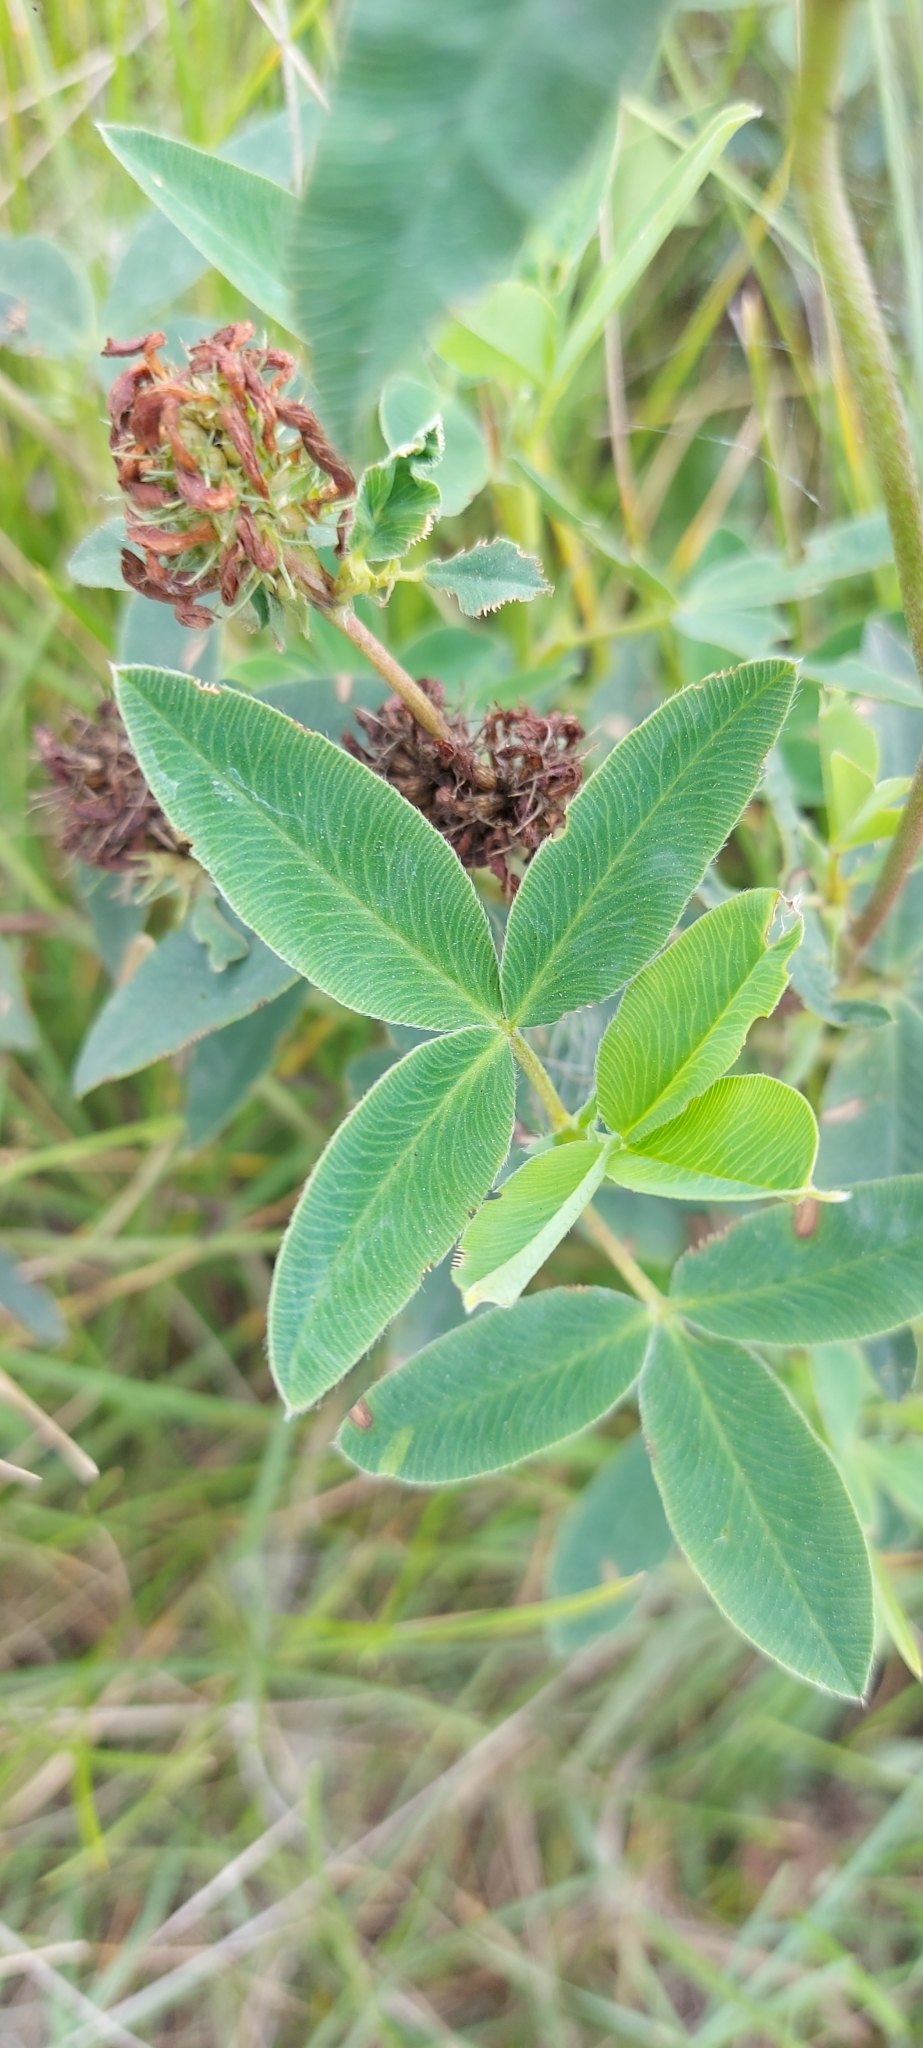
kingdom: Plantae
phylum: Tracheophyta
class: Magnoliopsida
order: Fabales
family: Fabaceae
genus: Trifolium
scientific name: Trifolium medium
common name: Zigzag clover
